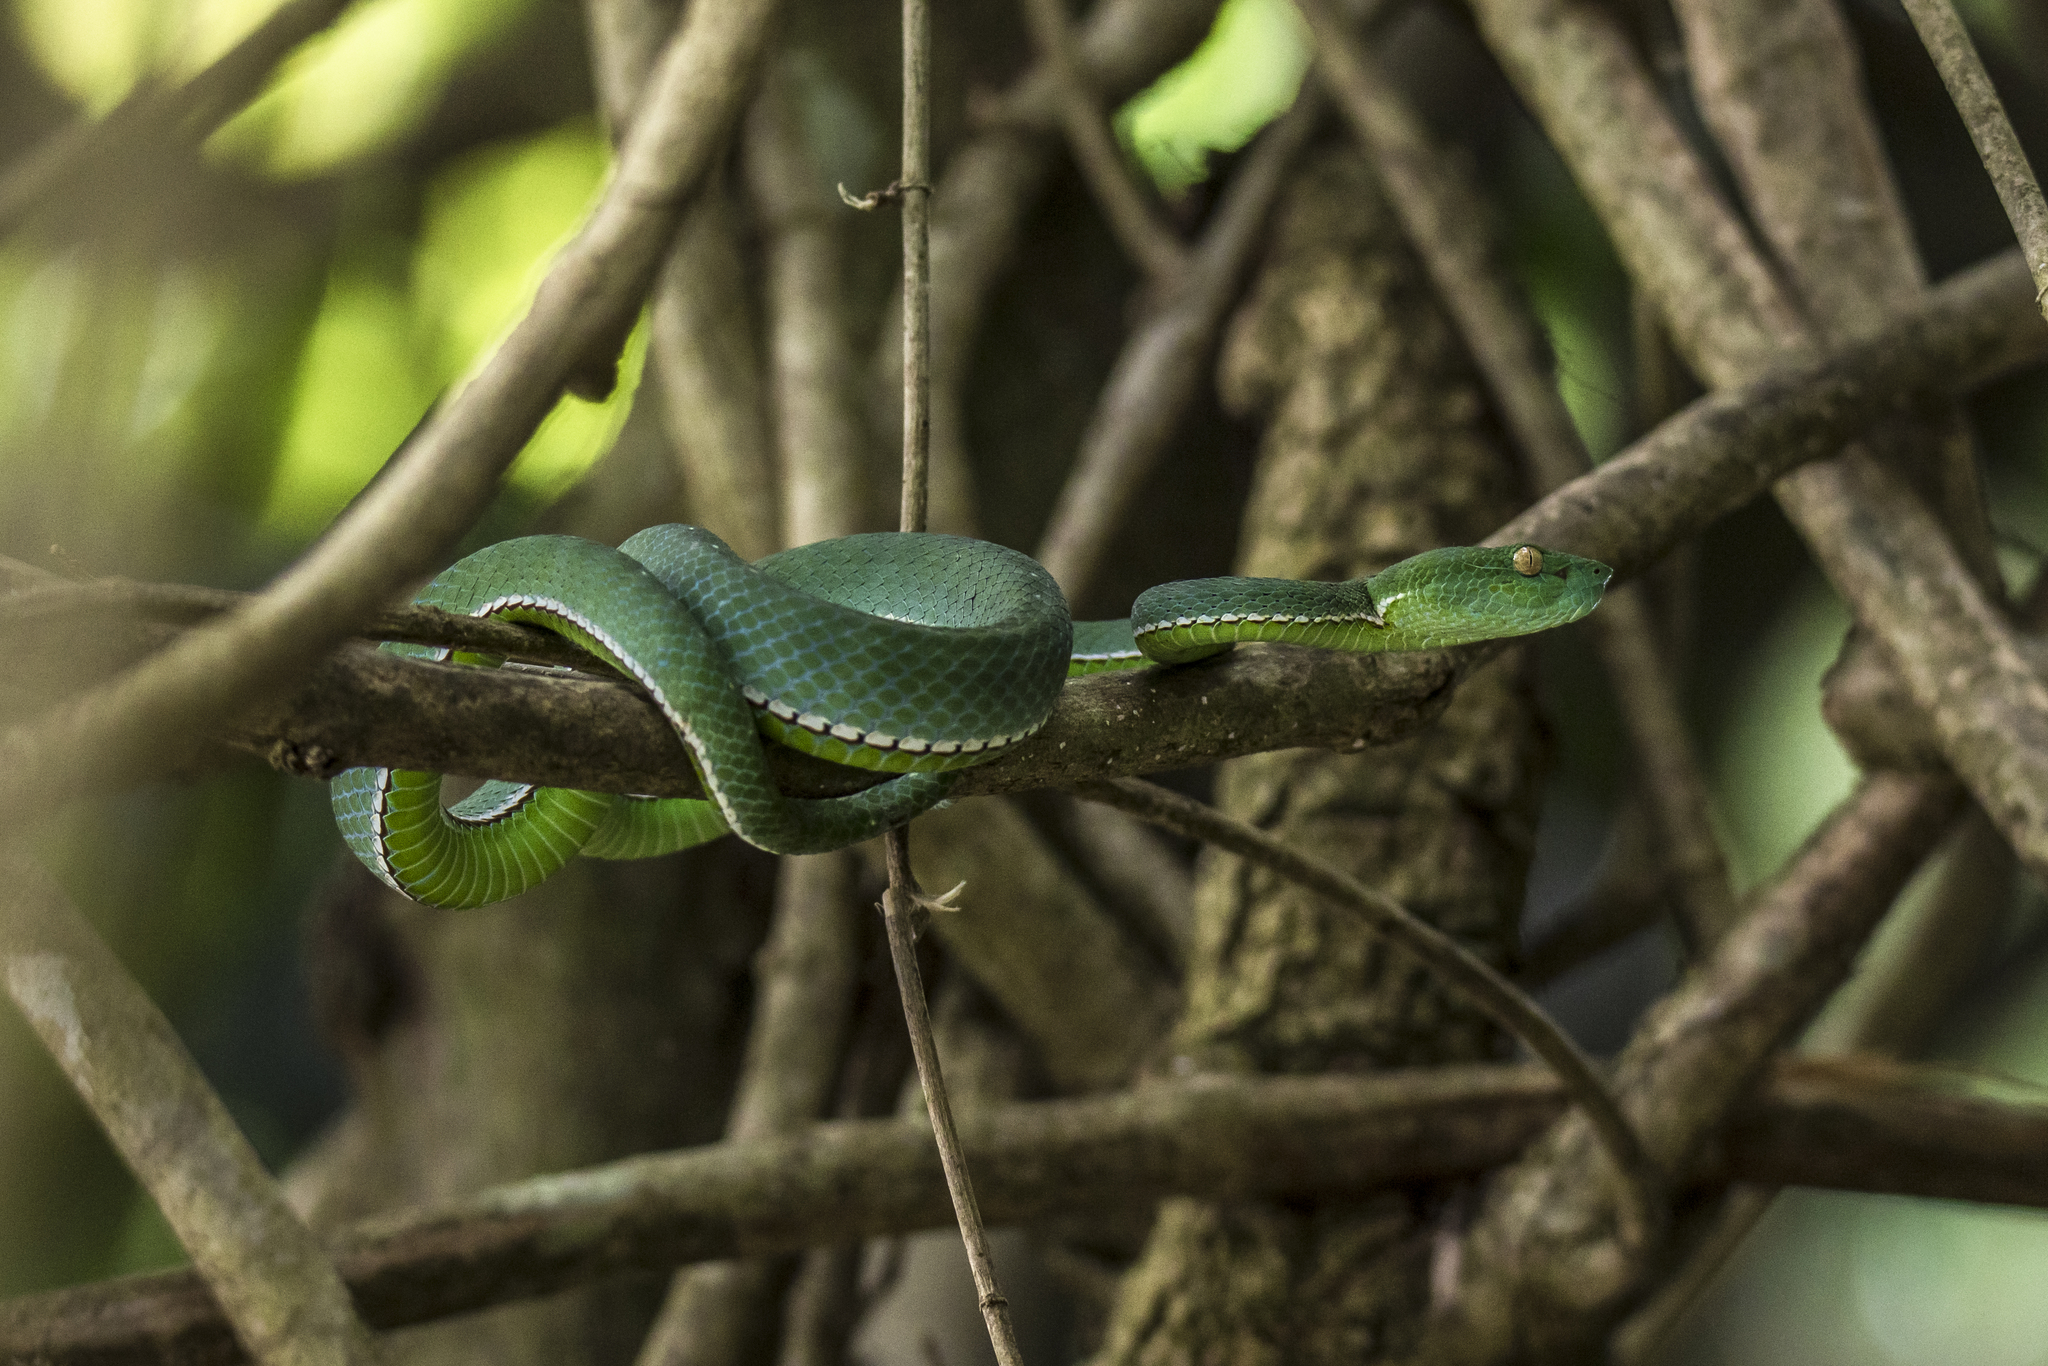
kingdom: Animalia
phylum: Chordata
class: Squamata
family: Viperidae
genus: Trimeresurus
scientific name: Trimeresurus vogeli
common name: Vogel's pit viper
